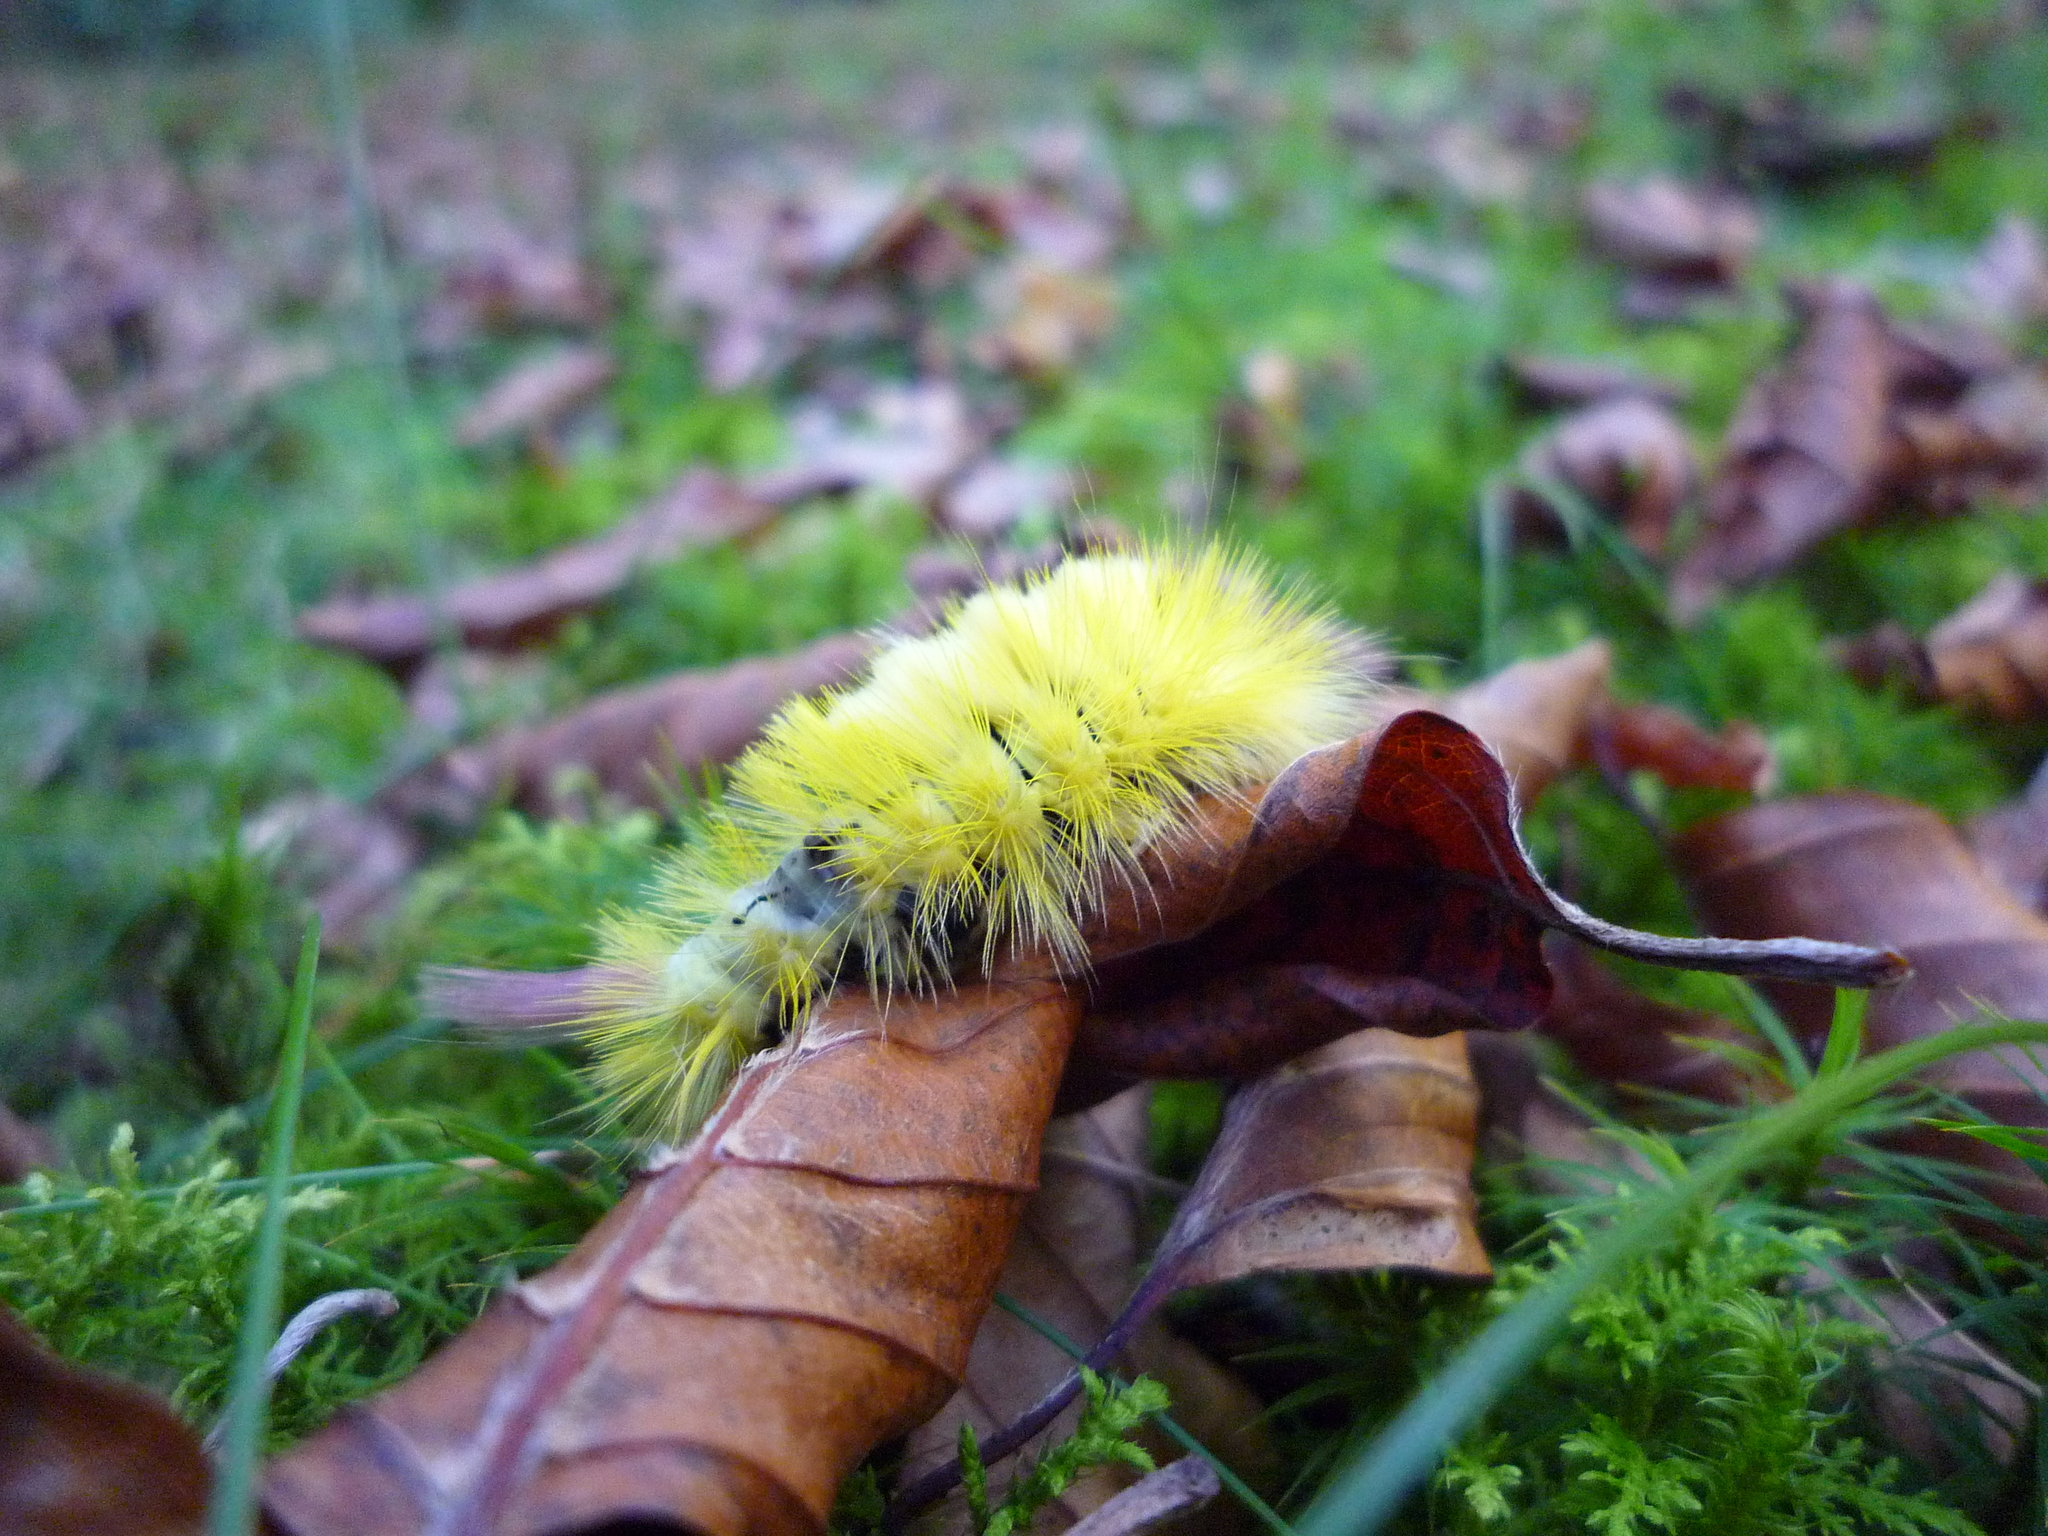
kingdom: Animalia
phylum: Arthropoda
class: Insecta
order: Lepidoptera
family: Erebidae
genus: Calliteara
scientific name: Calliteara pudibunda
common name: Pale tussock
